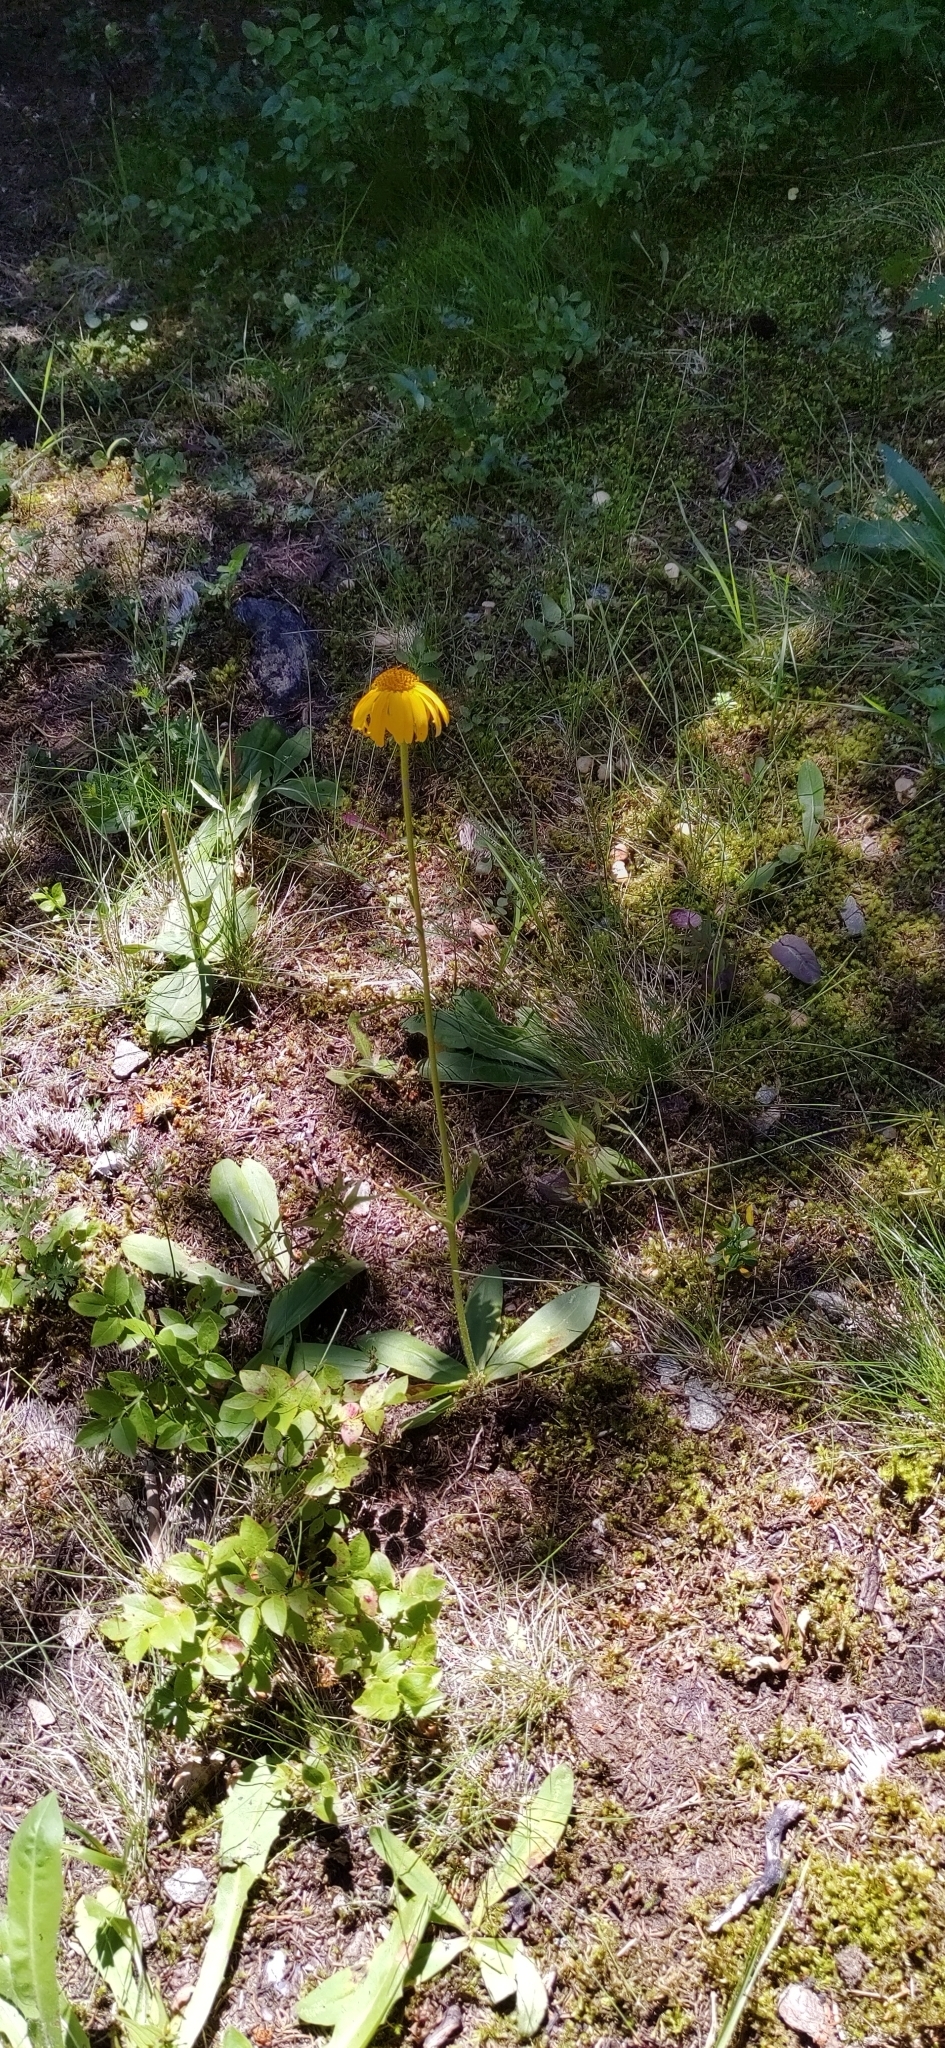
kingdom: Plantae
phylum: Tracheophyta
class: Magnoliopsida
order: Asterales
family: Asteraceae
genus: Arnica
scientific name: Arnica montana
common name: Leopard's bane
